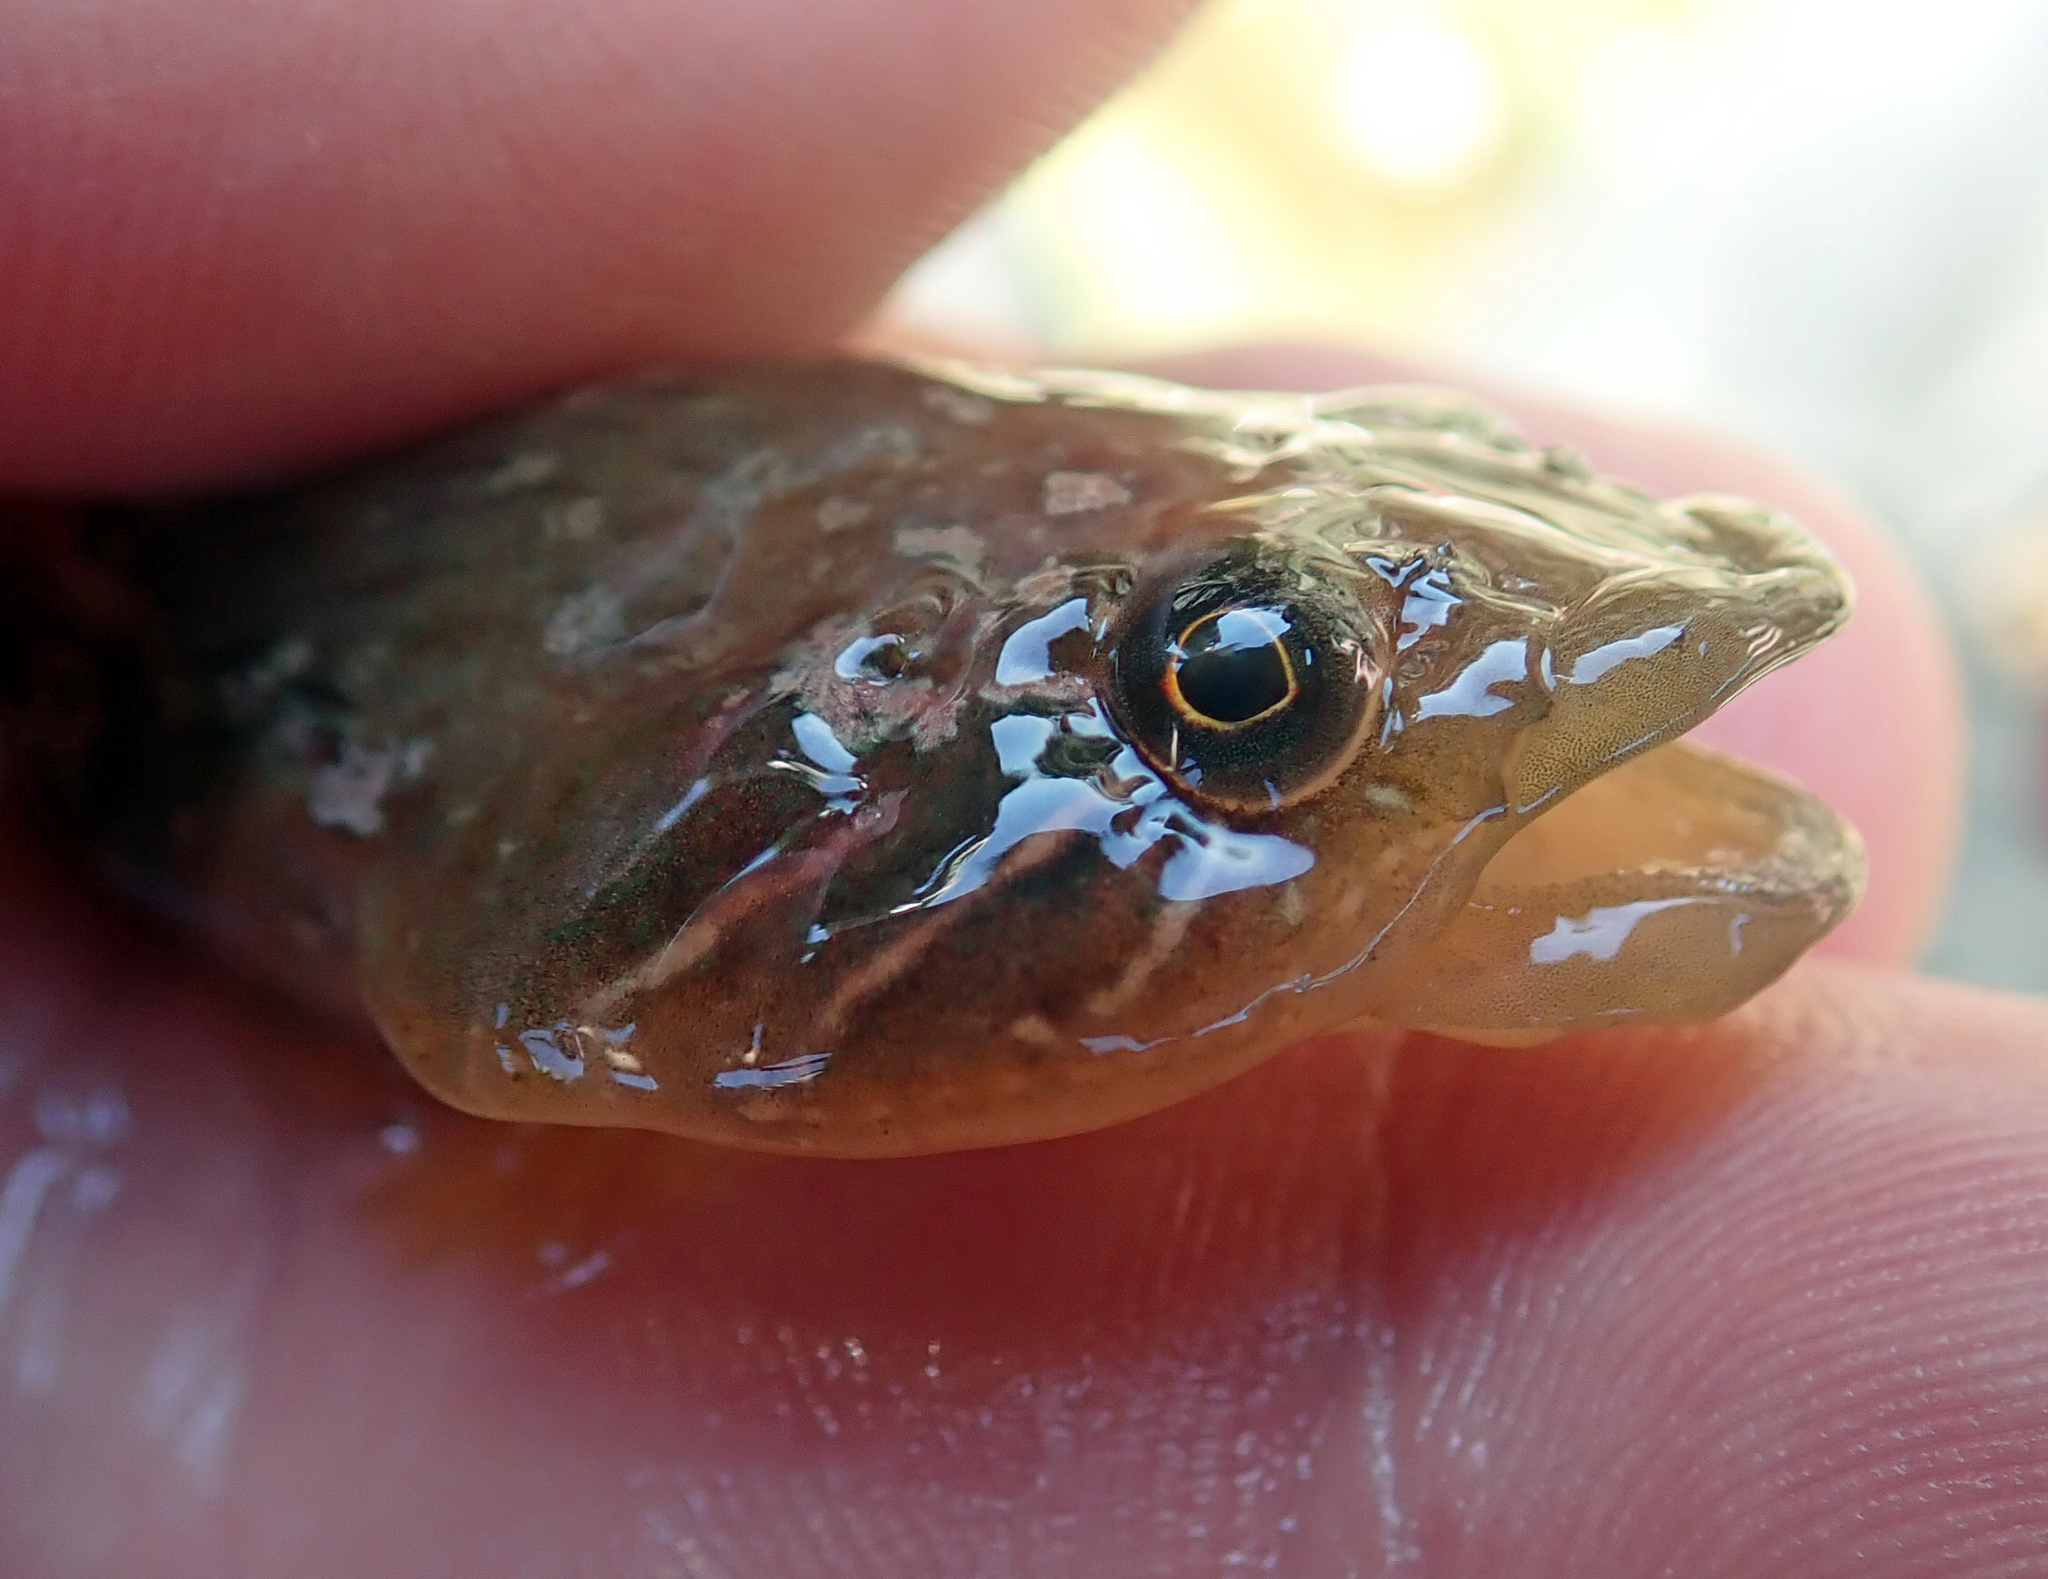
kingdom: Animalia
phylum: Chordata
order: Gobiesociformes
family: Gobiesocidae
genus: Trachelochismus
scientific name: Trachelochismus pinnulatus
